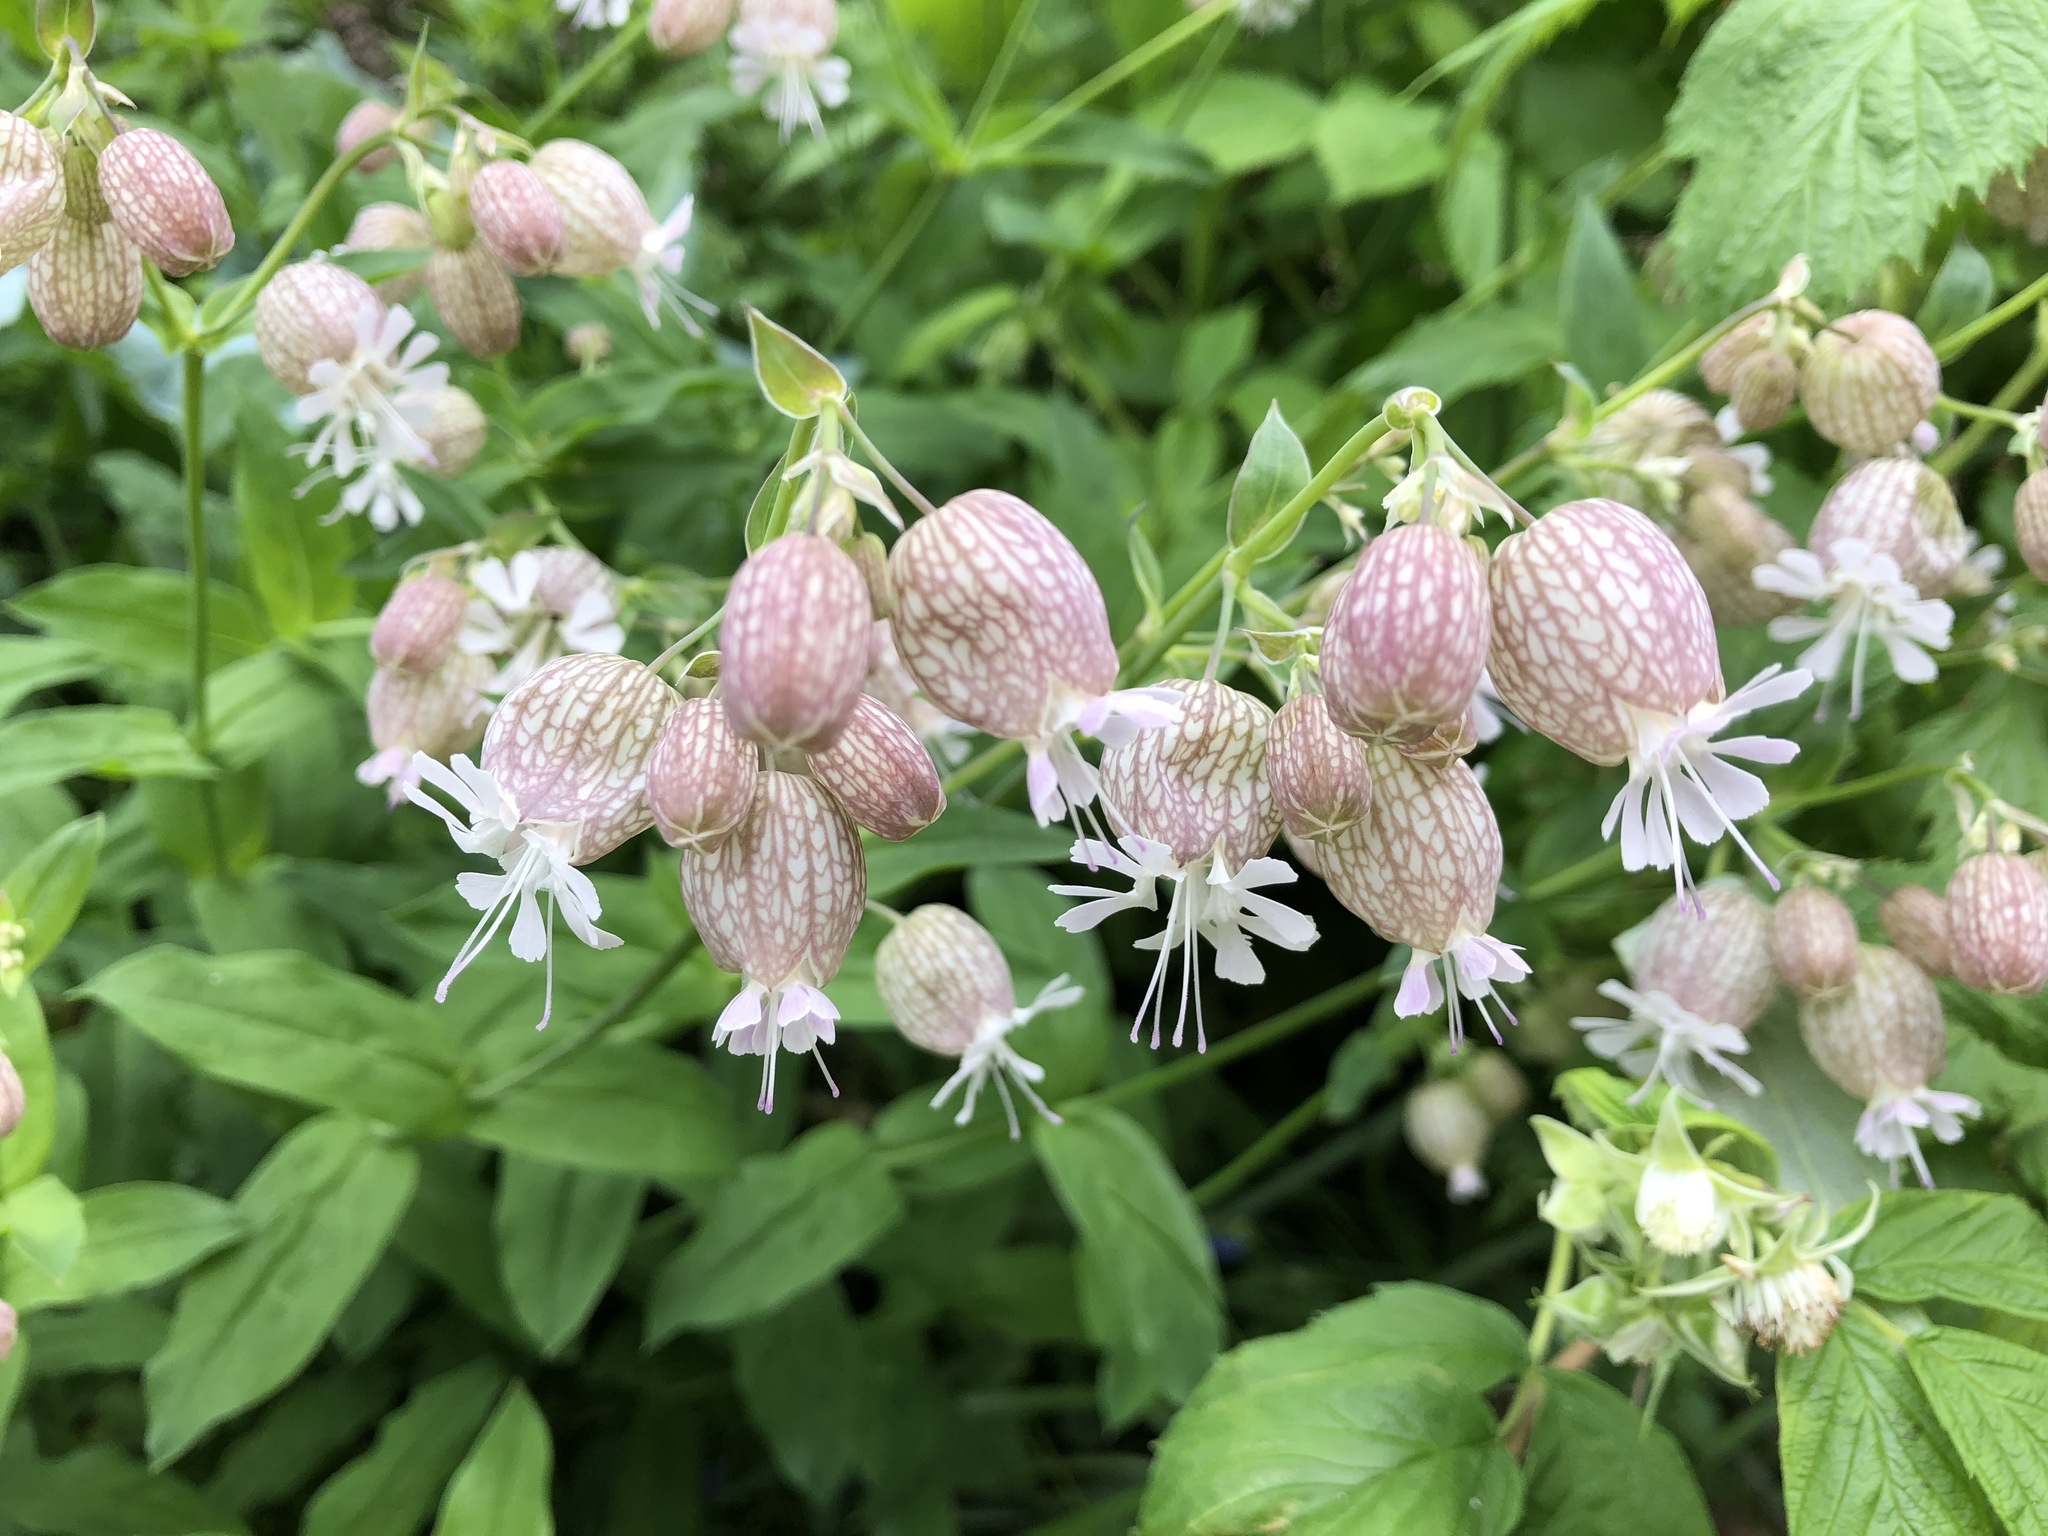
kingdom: Plantae
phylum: Tracheophyta
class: Magnoliopsida
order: Caryophyllales
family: Caryophyllaceae
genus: Silene
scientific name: Silene vulgaris
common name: Bladder campion
